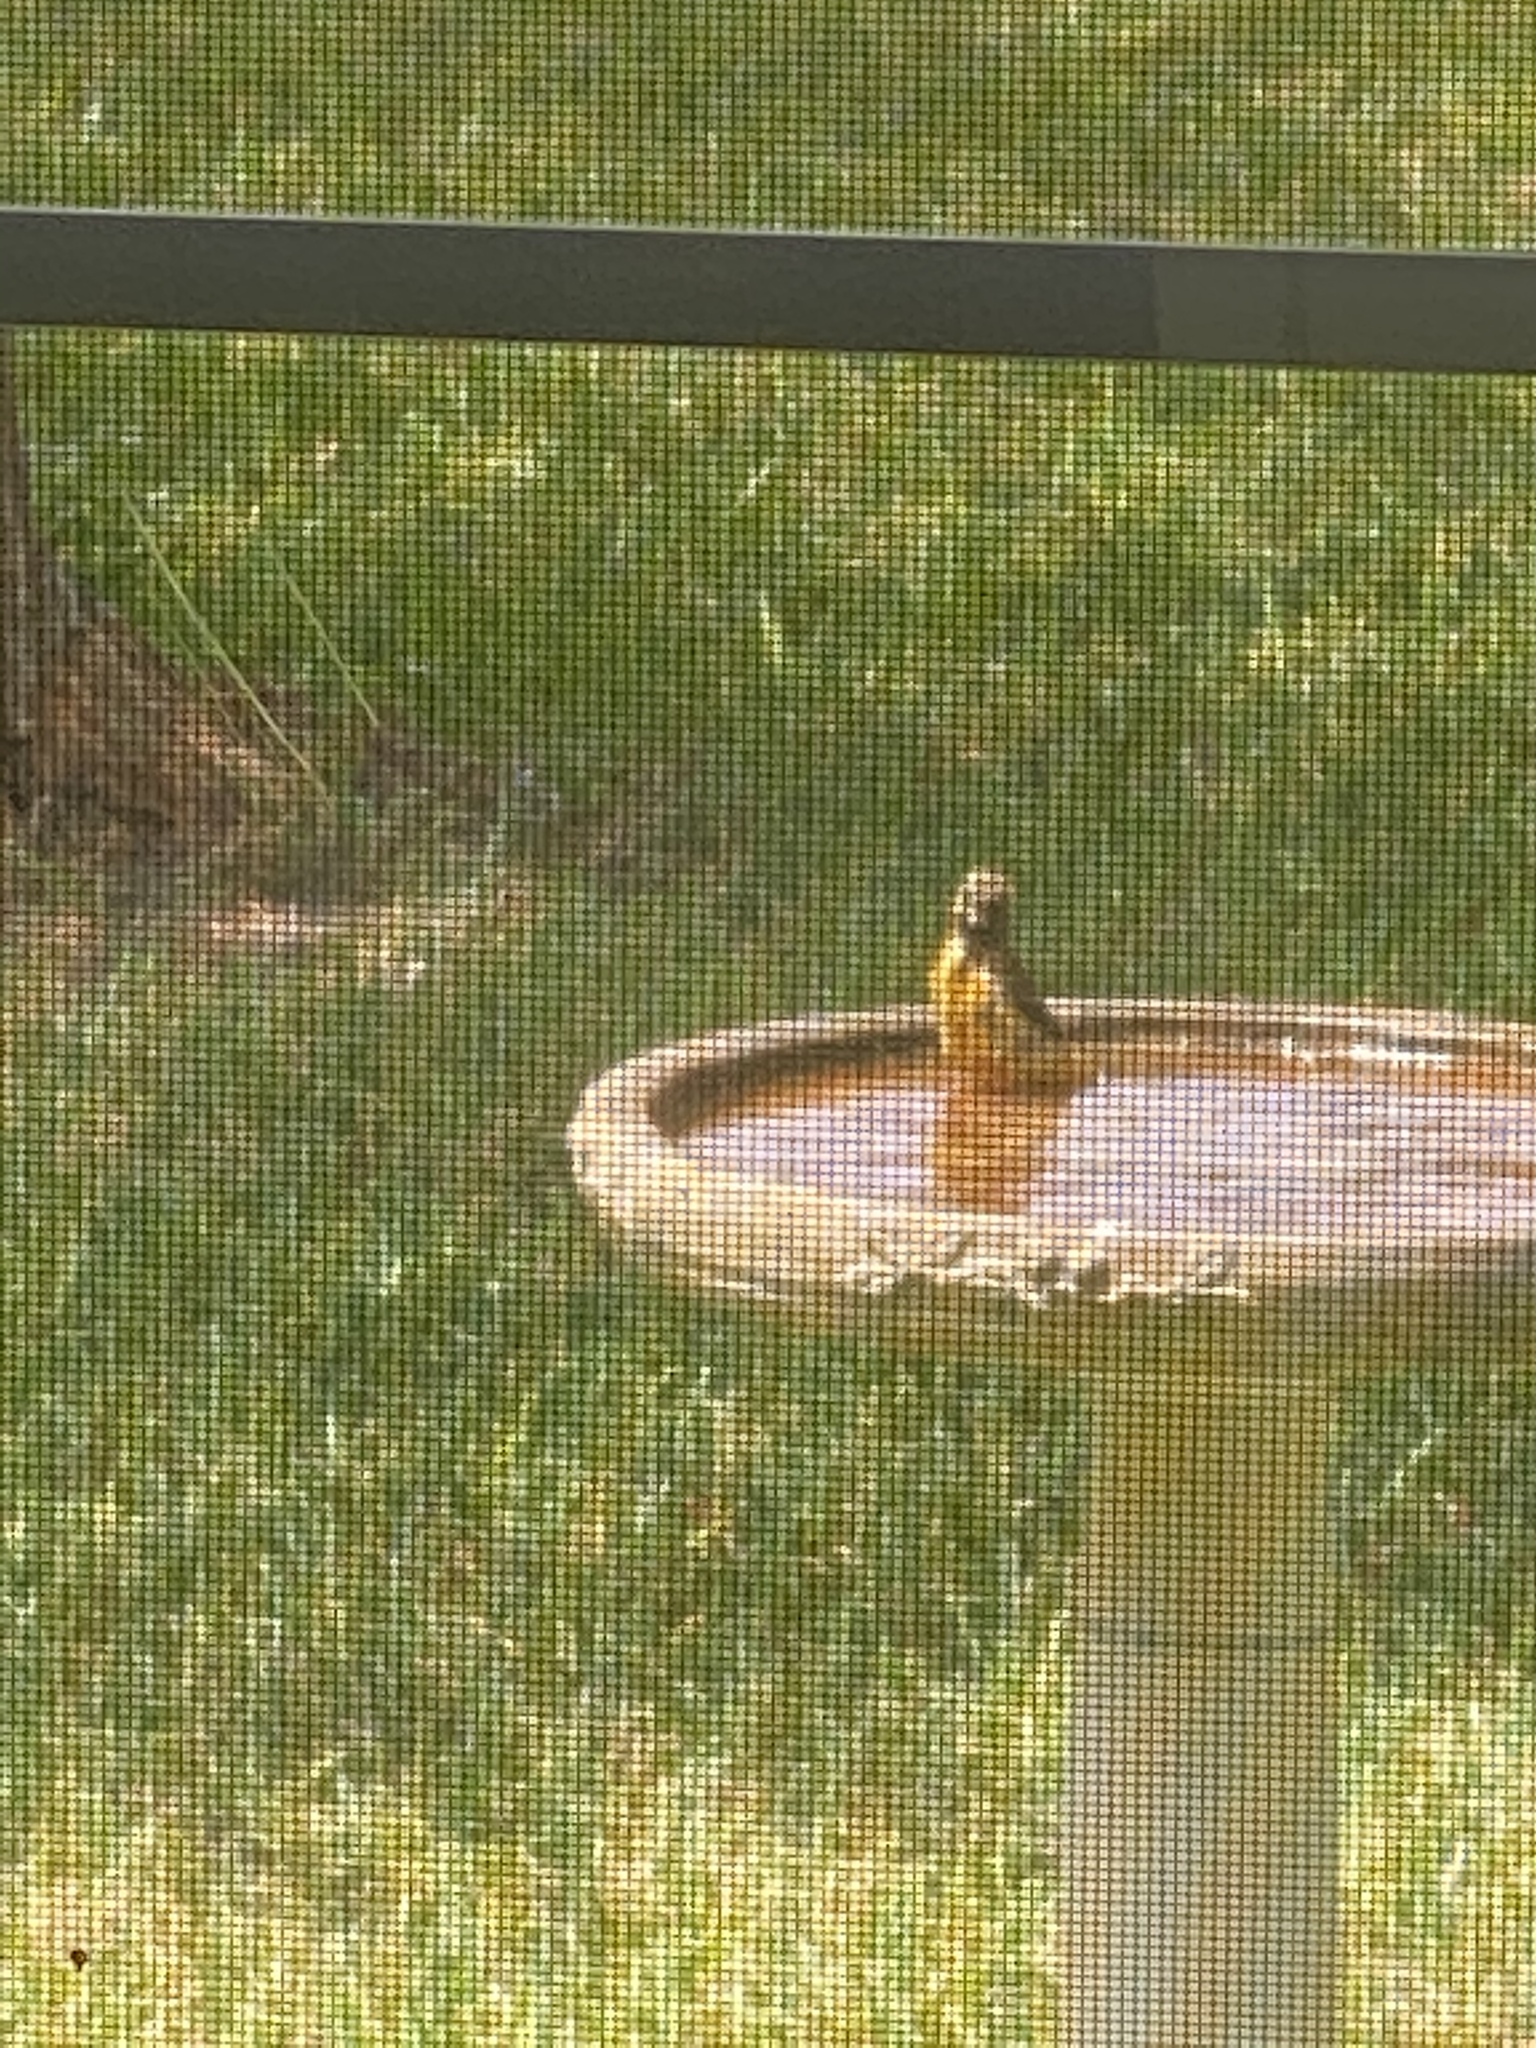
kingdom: Animalia
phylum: Chordata
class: Aves
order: Passeriformes
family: Icteridae
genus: Icterus
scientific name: Icterus spurius
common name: Orchard oriole
